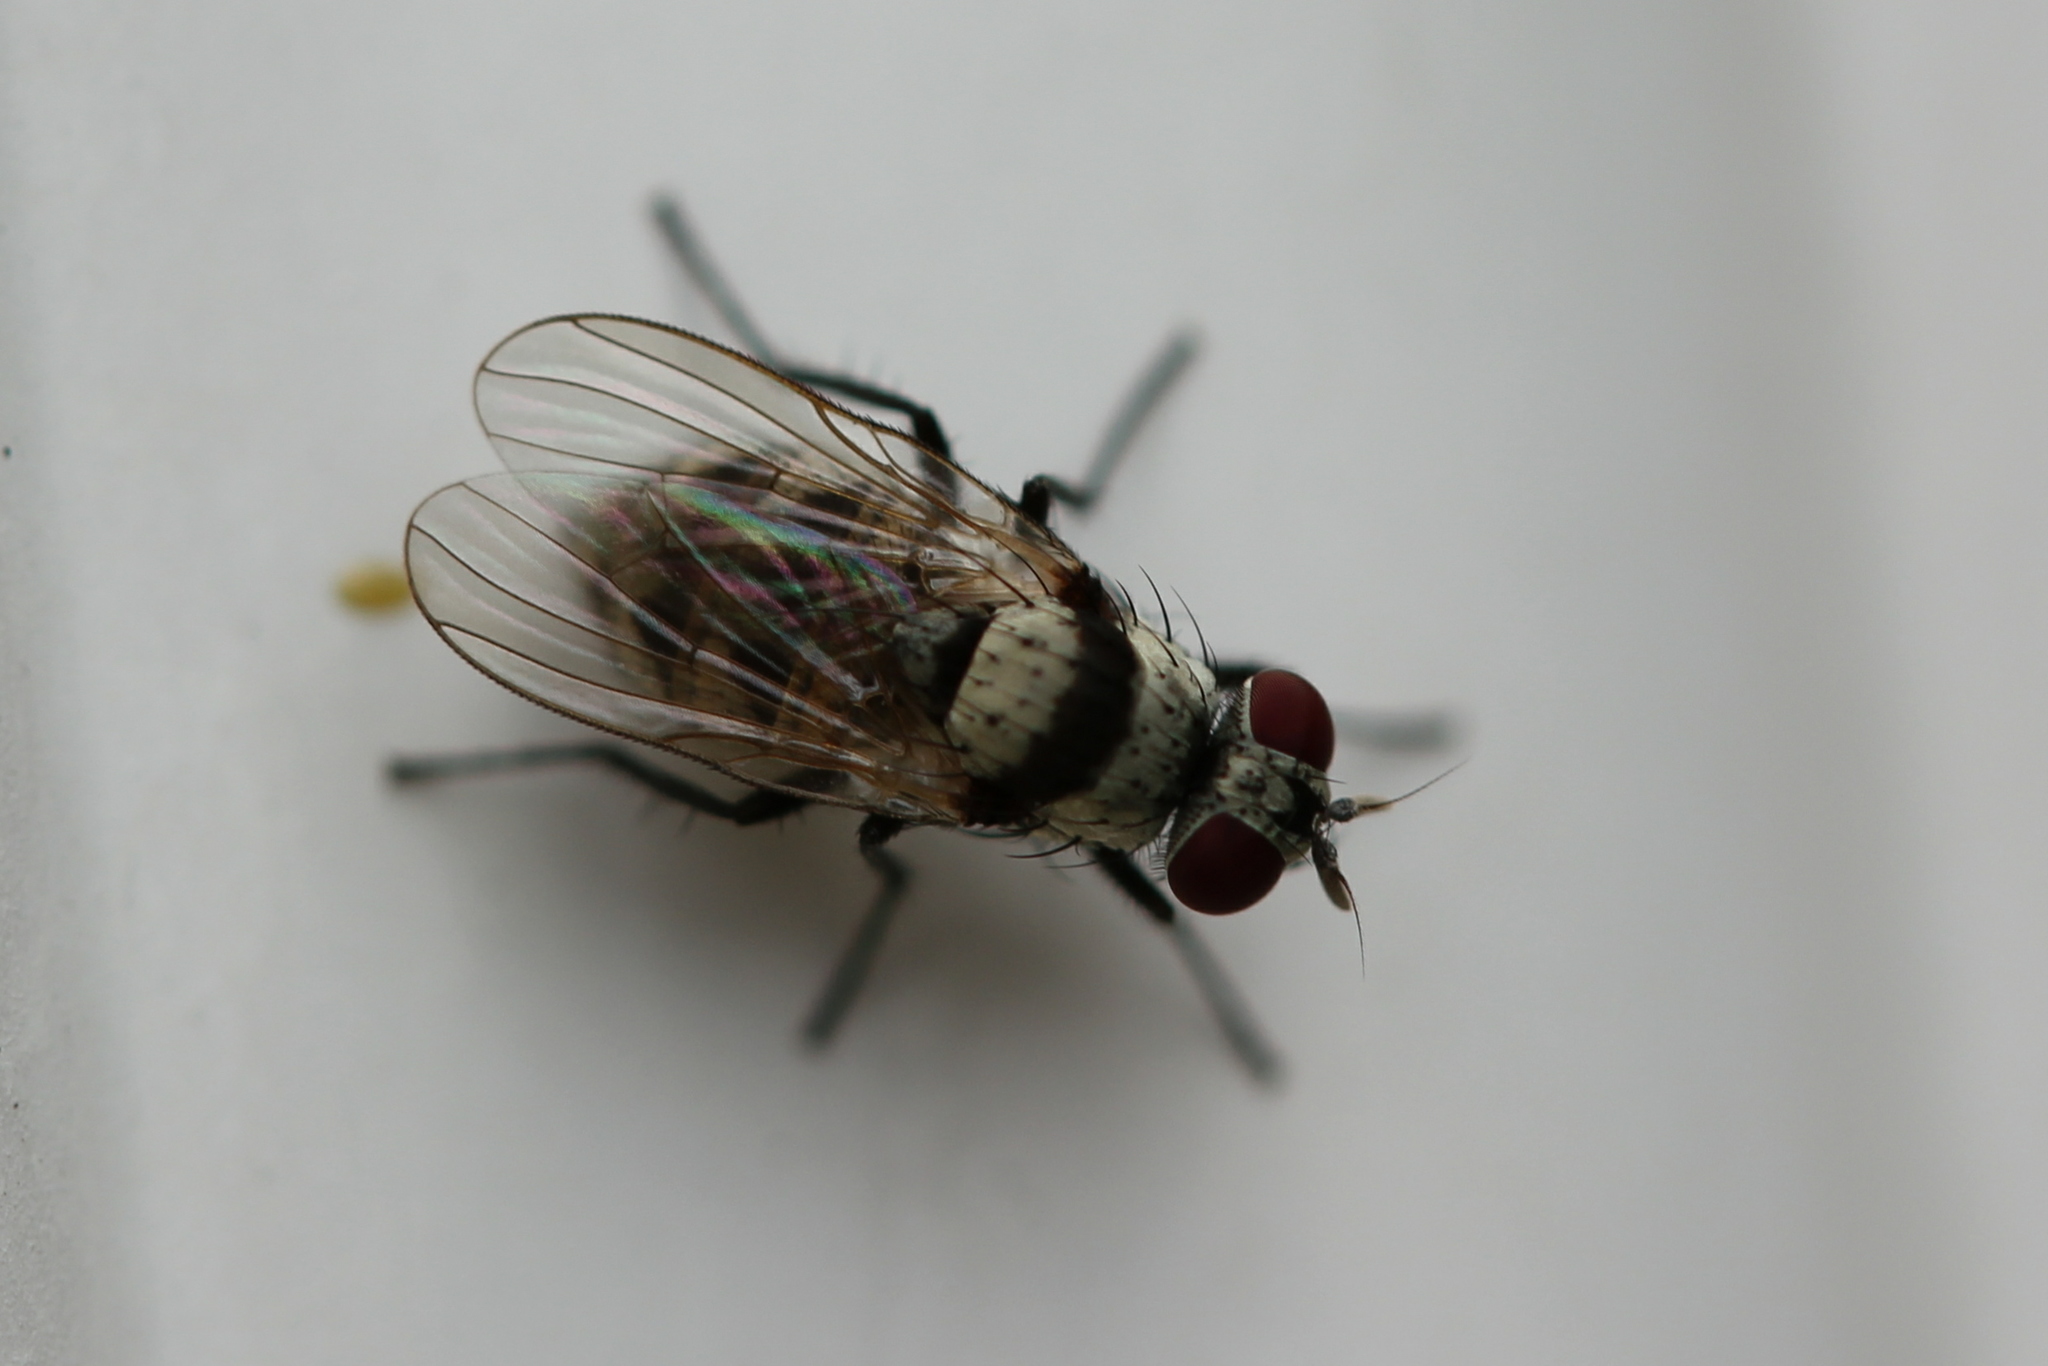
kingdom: Animalia
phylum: Arthropoda
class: Insecta
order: Diptera
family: Anthomyiidae
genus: Anthomyia
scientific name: Anthomyia illocata
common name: Fly
